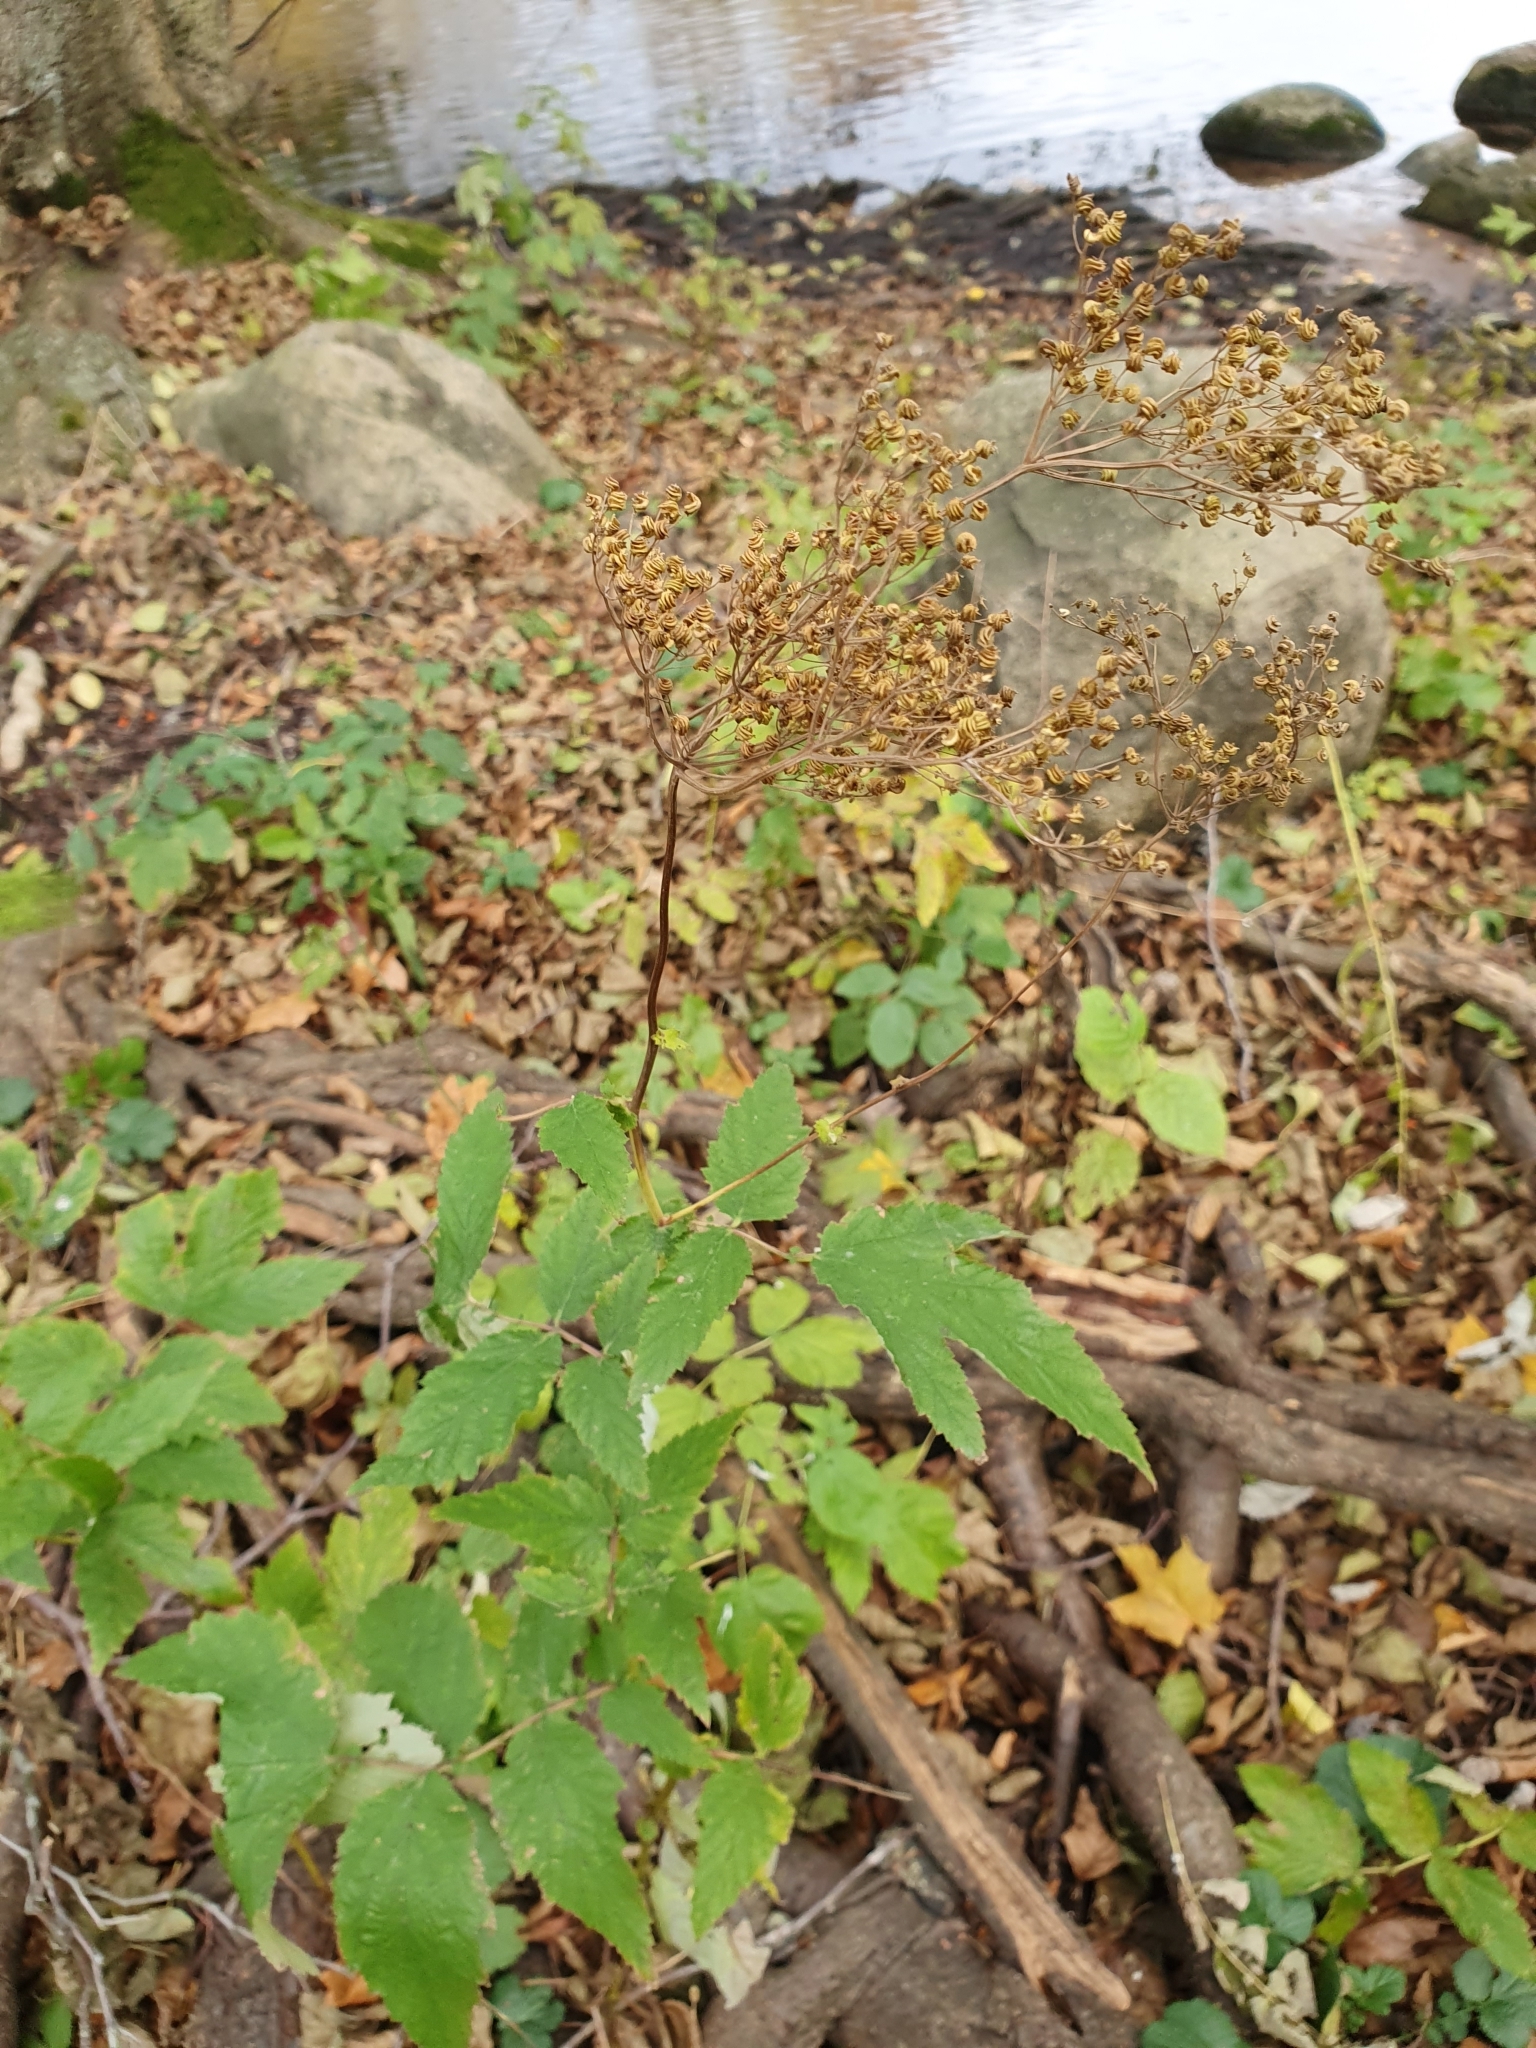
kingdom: Plantae
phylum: Tracheophyta
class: Magnoliopsida
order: Rosales
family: Rosaceae
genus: Filipendula
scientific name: Filipendula ulmaria
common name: Meadowsweet
